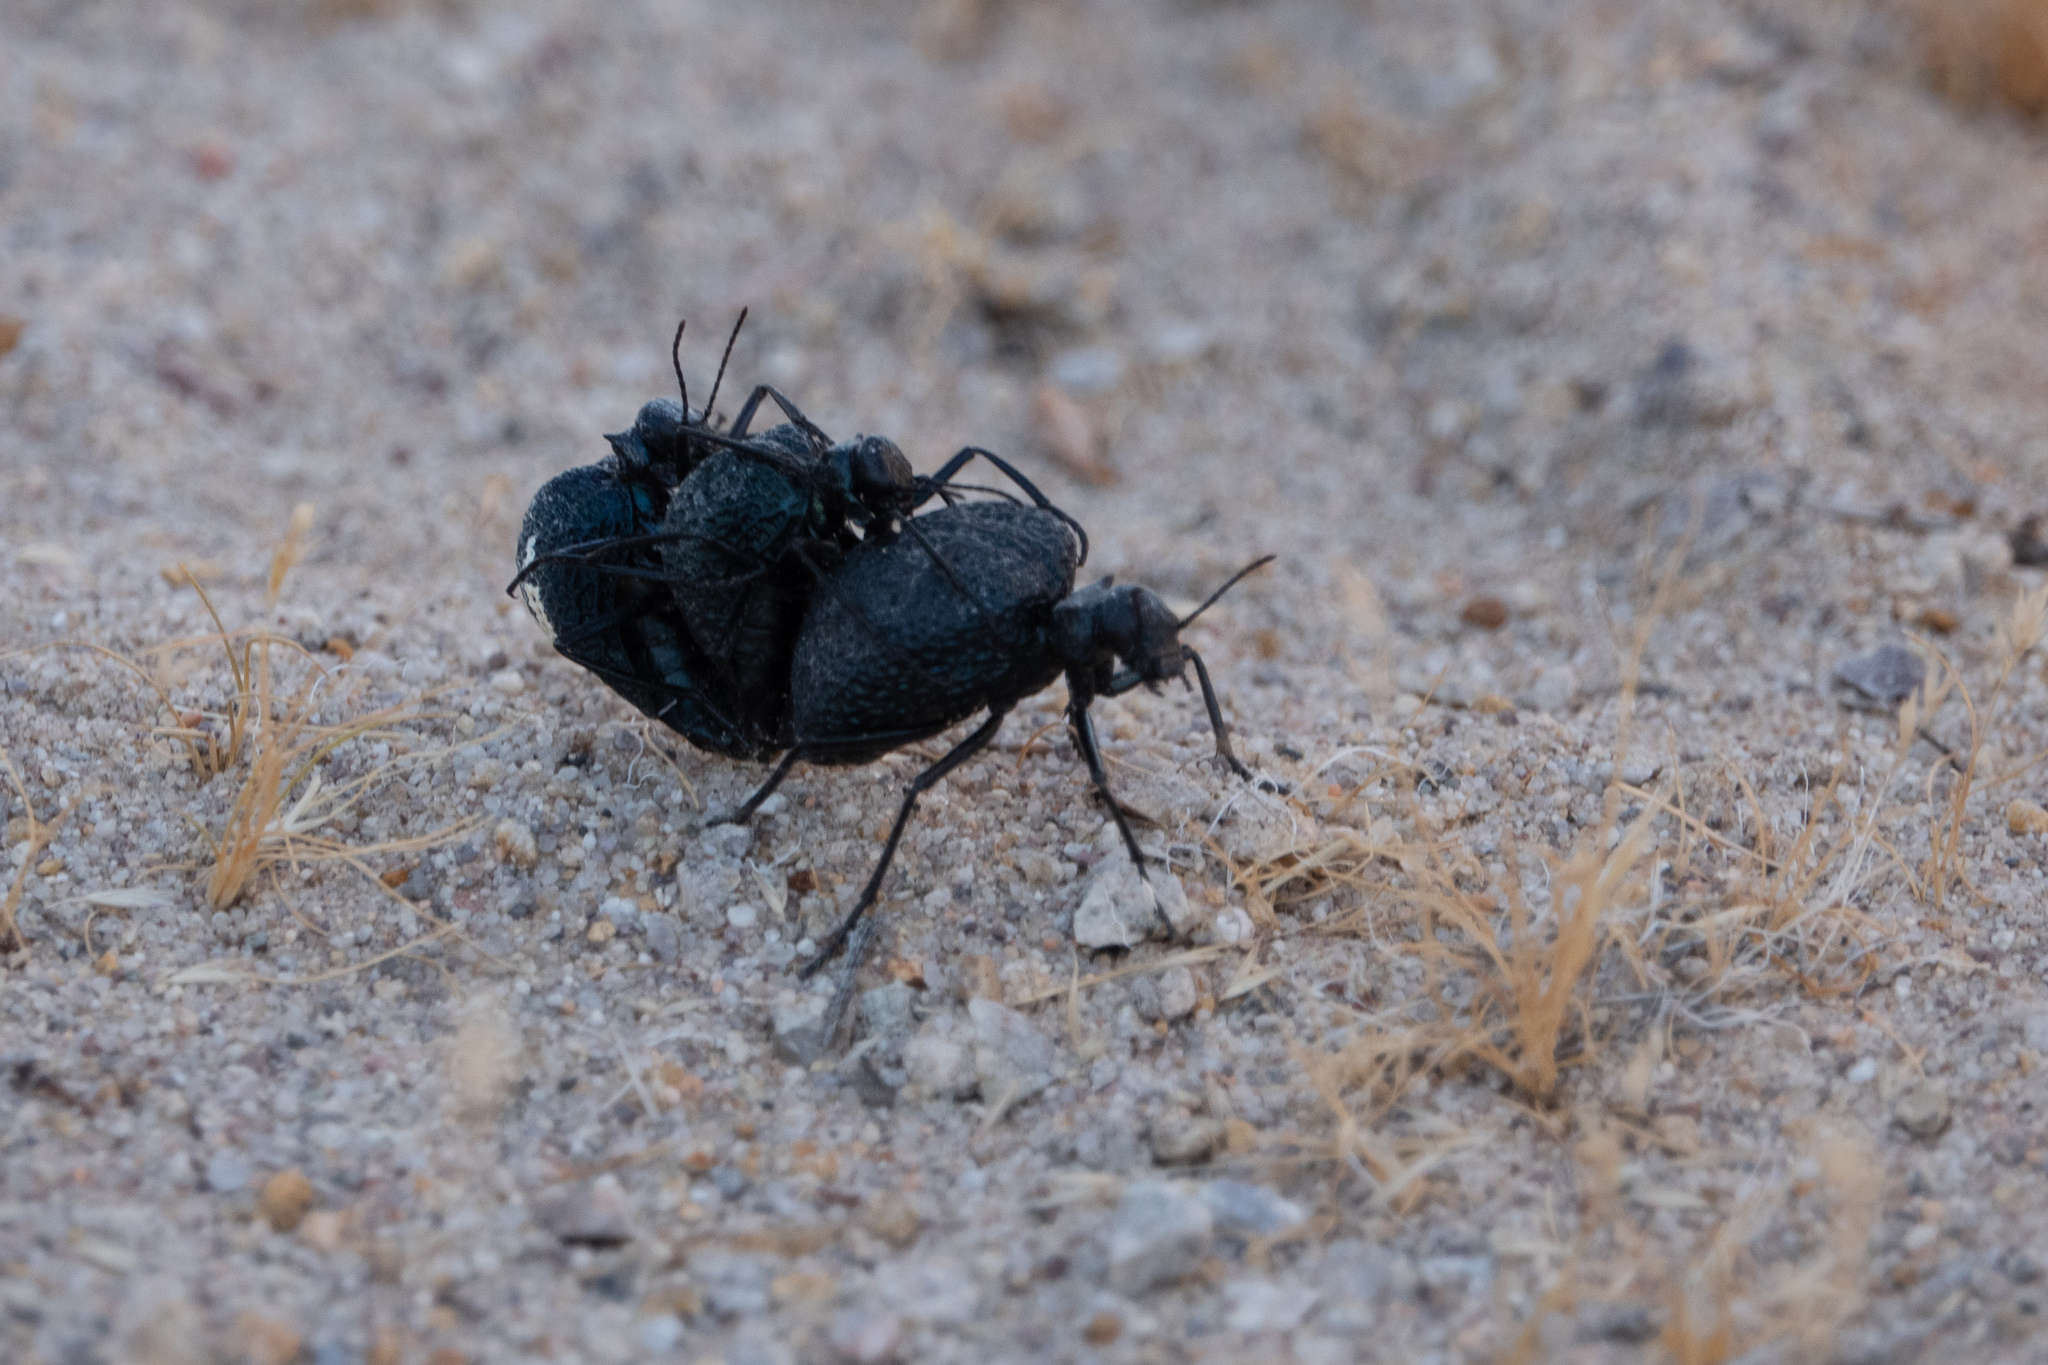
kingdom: Animalia
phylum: Arthropoda
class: Insecta
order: Coleoptera
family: Meloidae
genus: Cysteodemus
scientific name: Cysteodemus armatus
